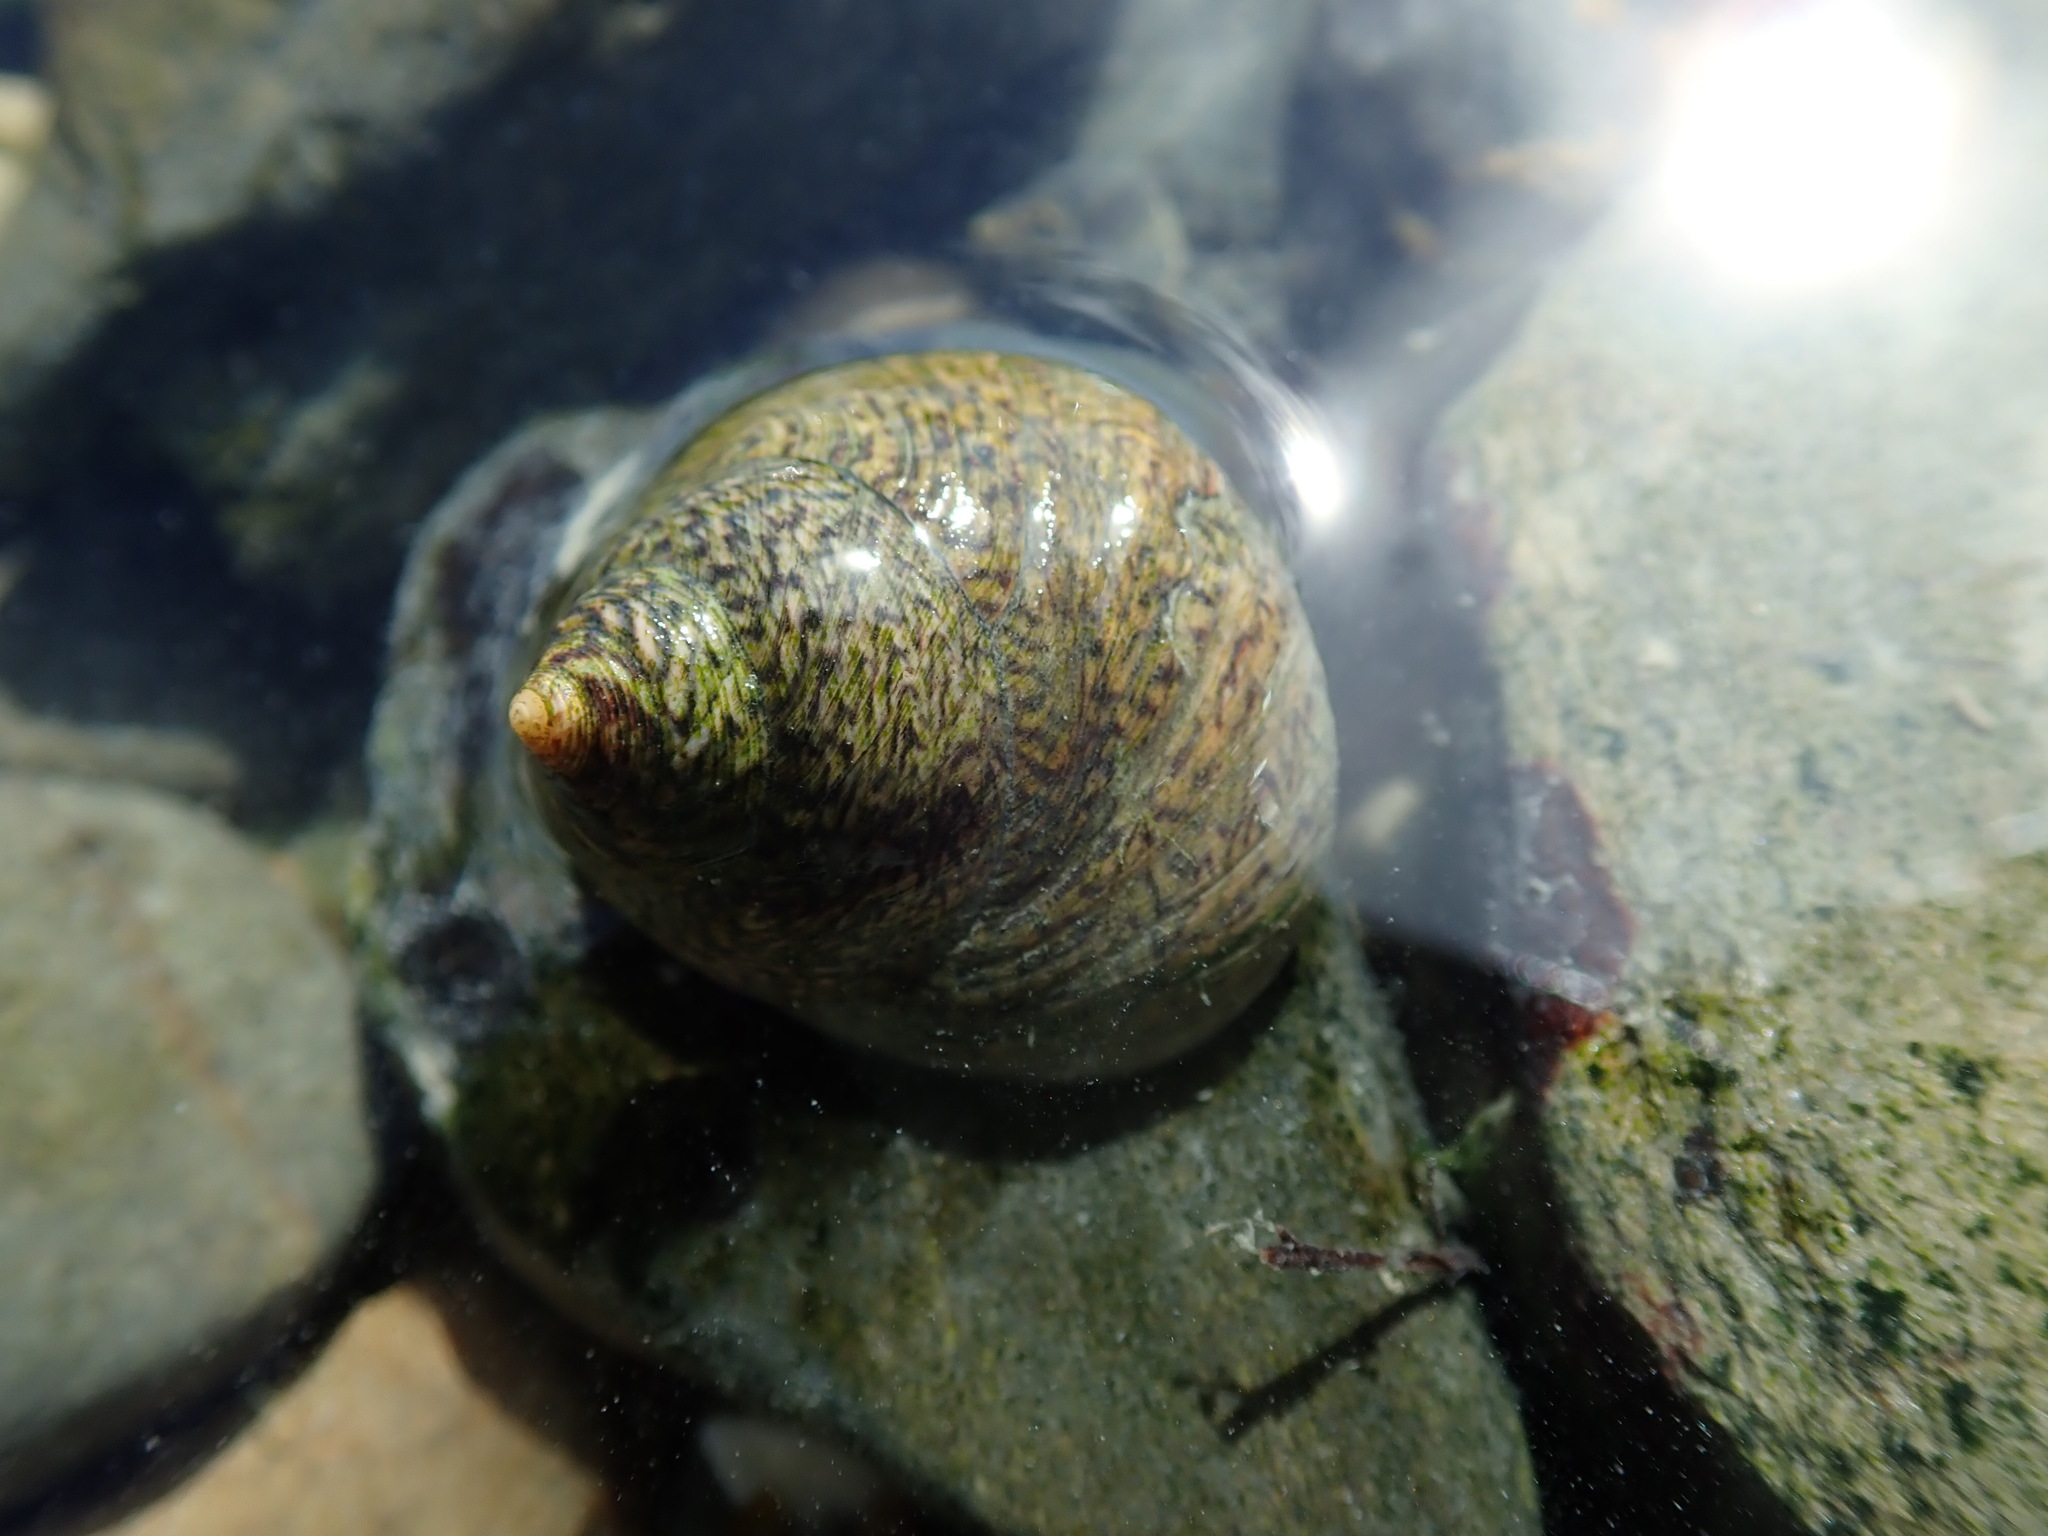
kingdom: Animalia
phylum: Mollusca
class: Gastropoda
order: Trochida
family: Trochidae
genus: Phorcus
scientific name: Phorcus lineatus
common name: Toothed top shell
